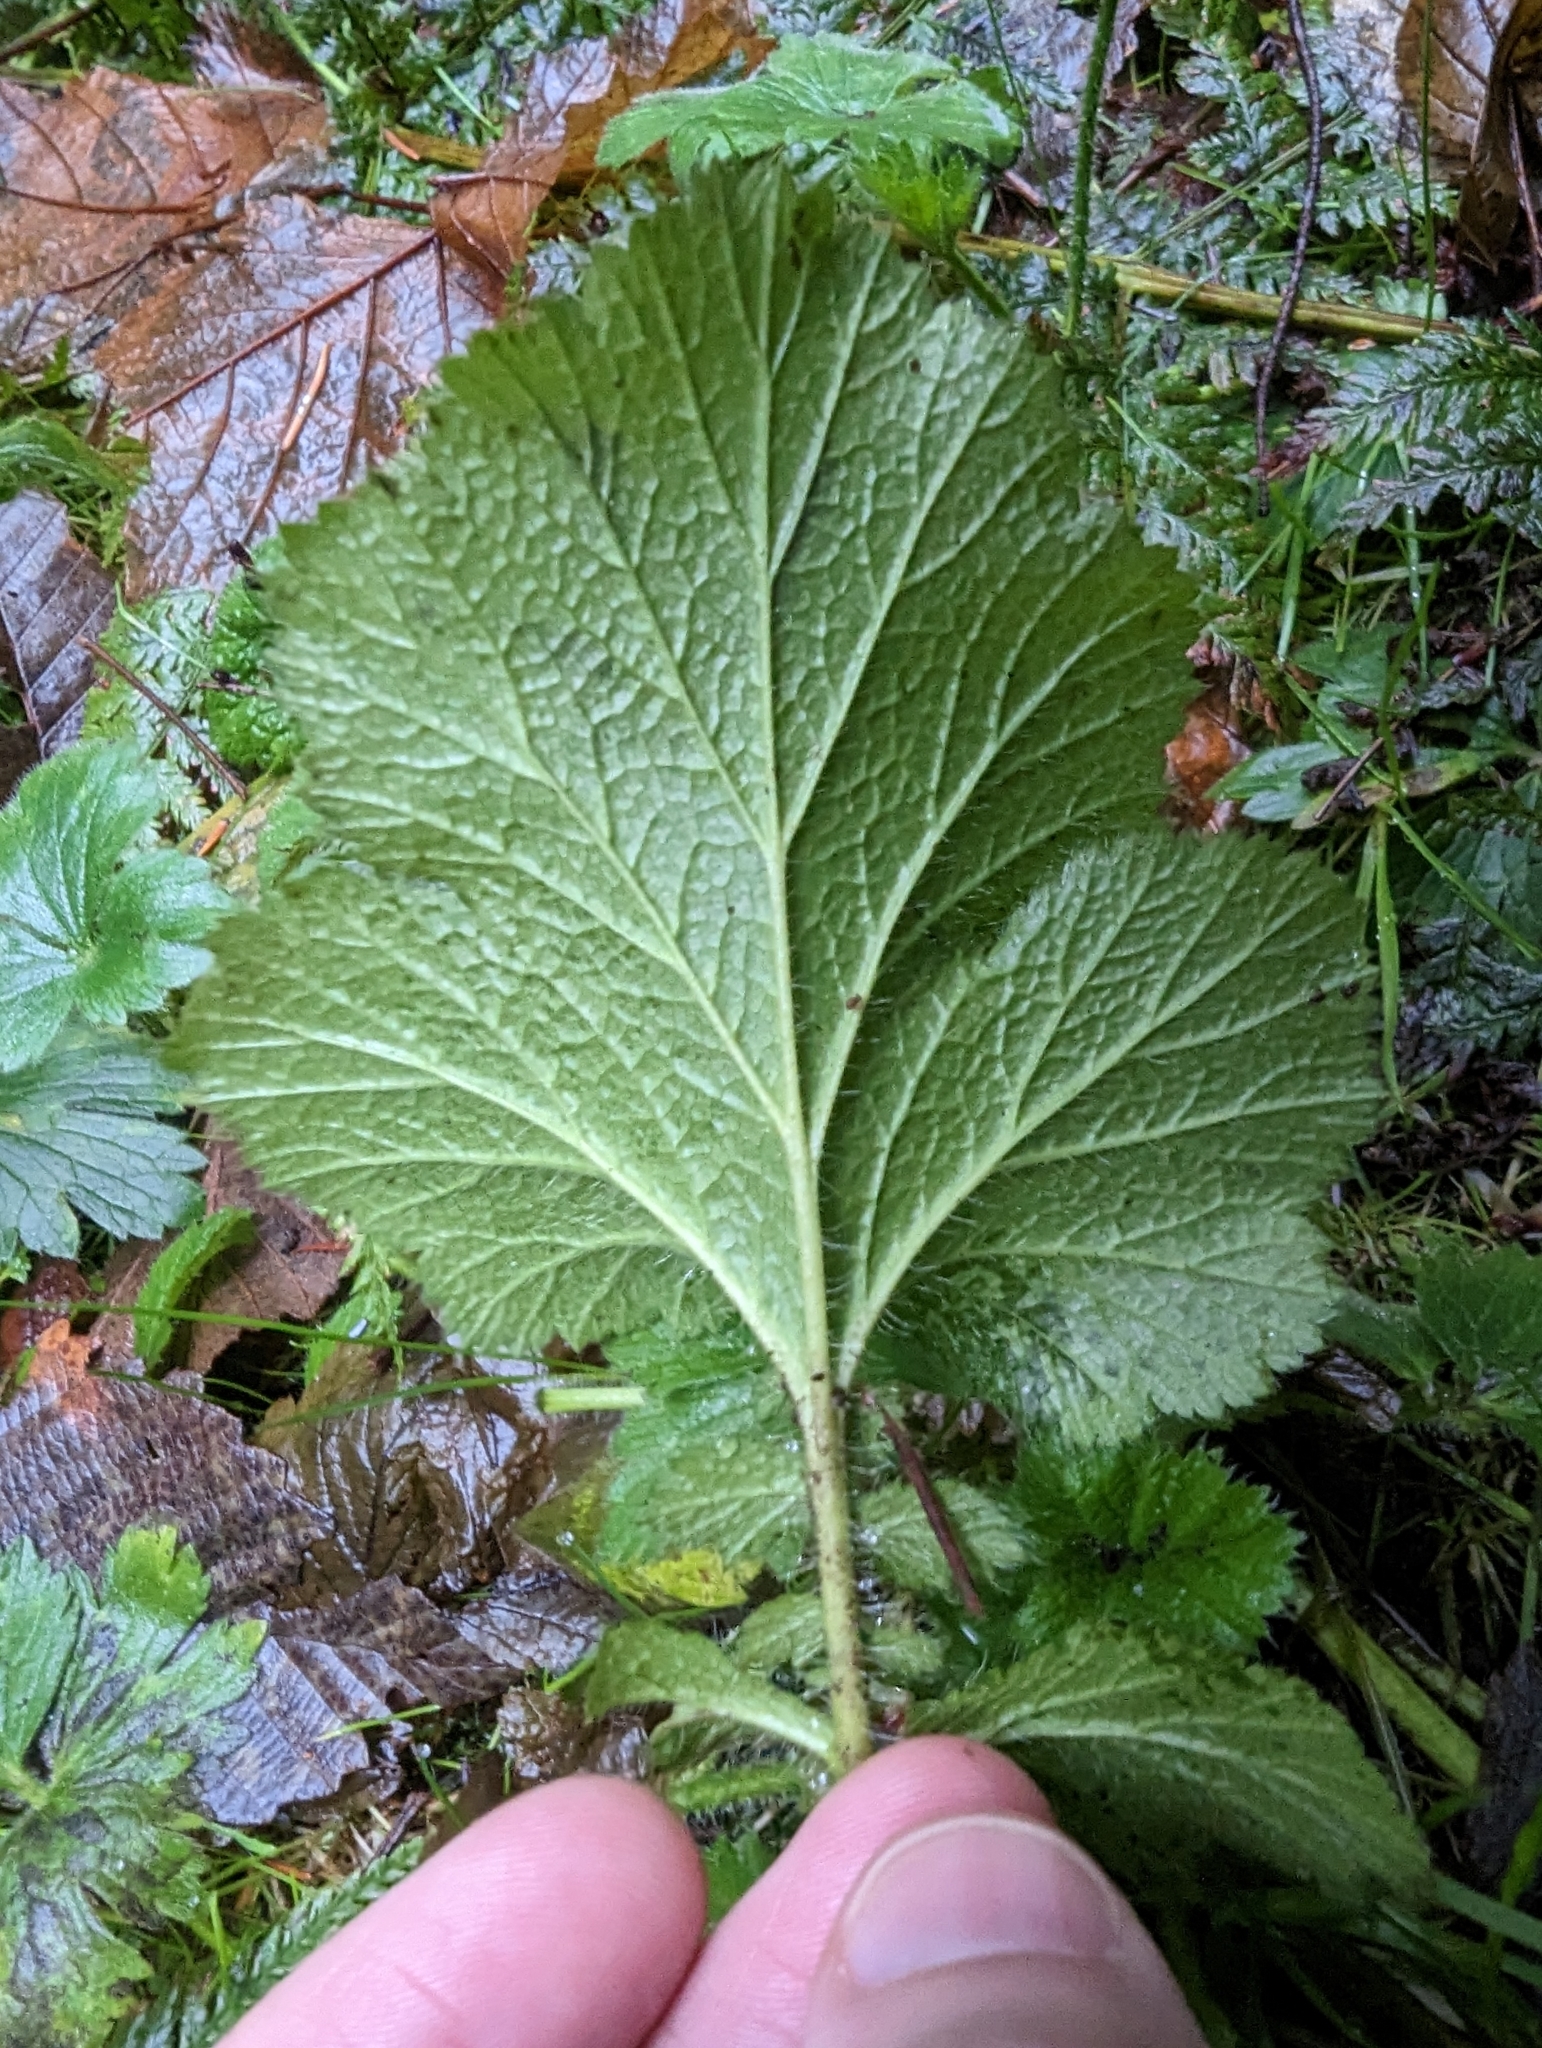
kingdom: Plantae
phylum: Tracheophyta
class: Magnoliopsida
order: Rosales
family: Rosaceae
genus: Geum
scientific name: Geum macrophyllum
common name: Large-leaved avens
